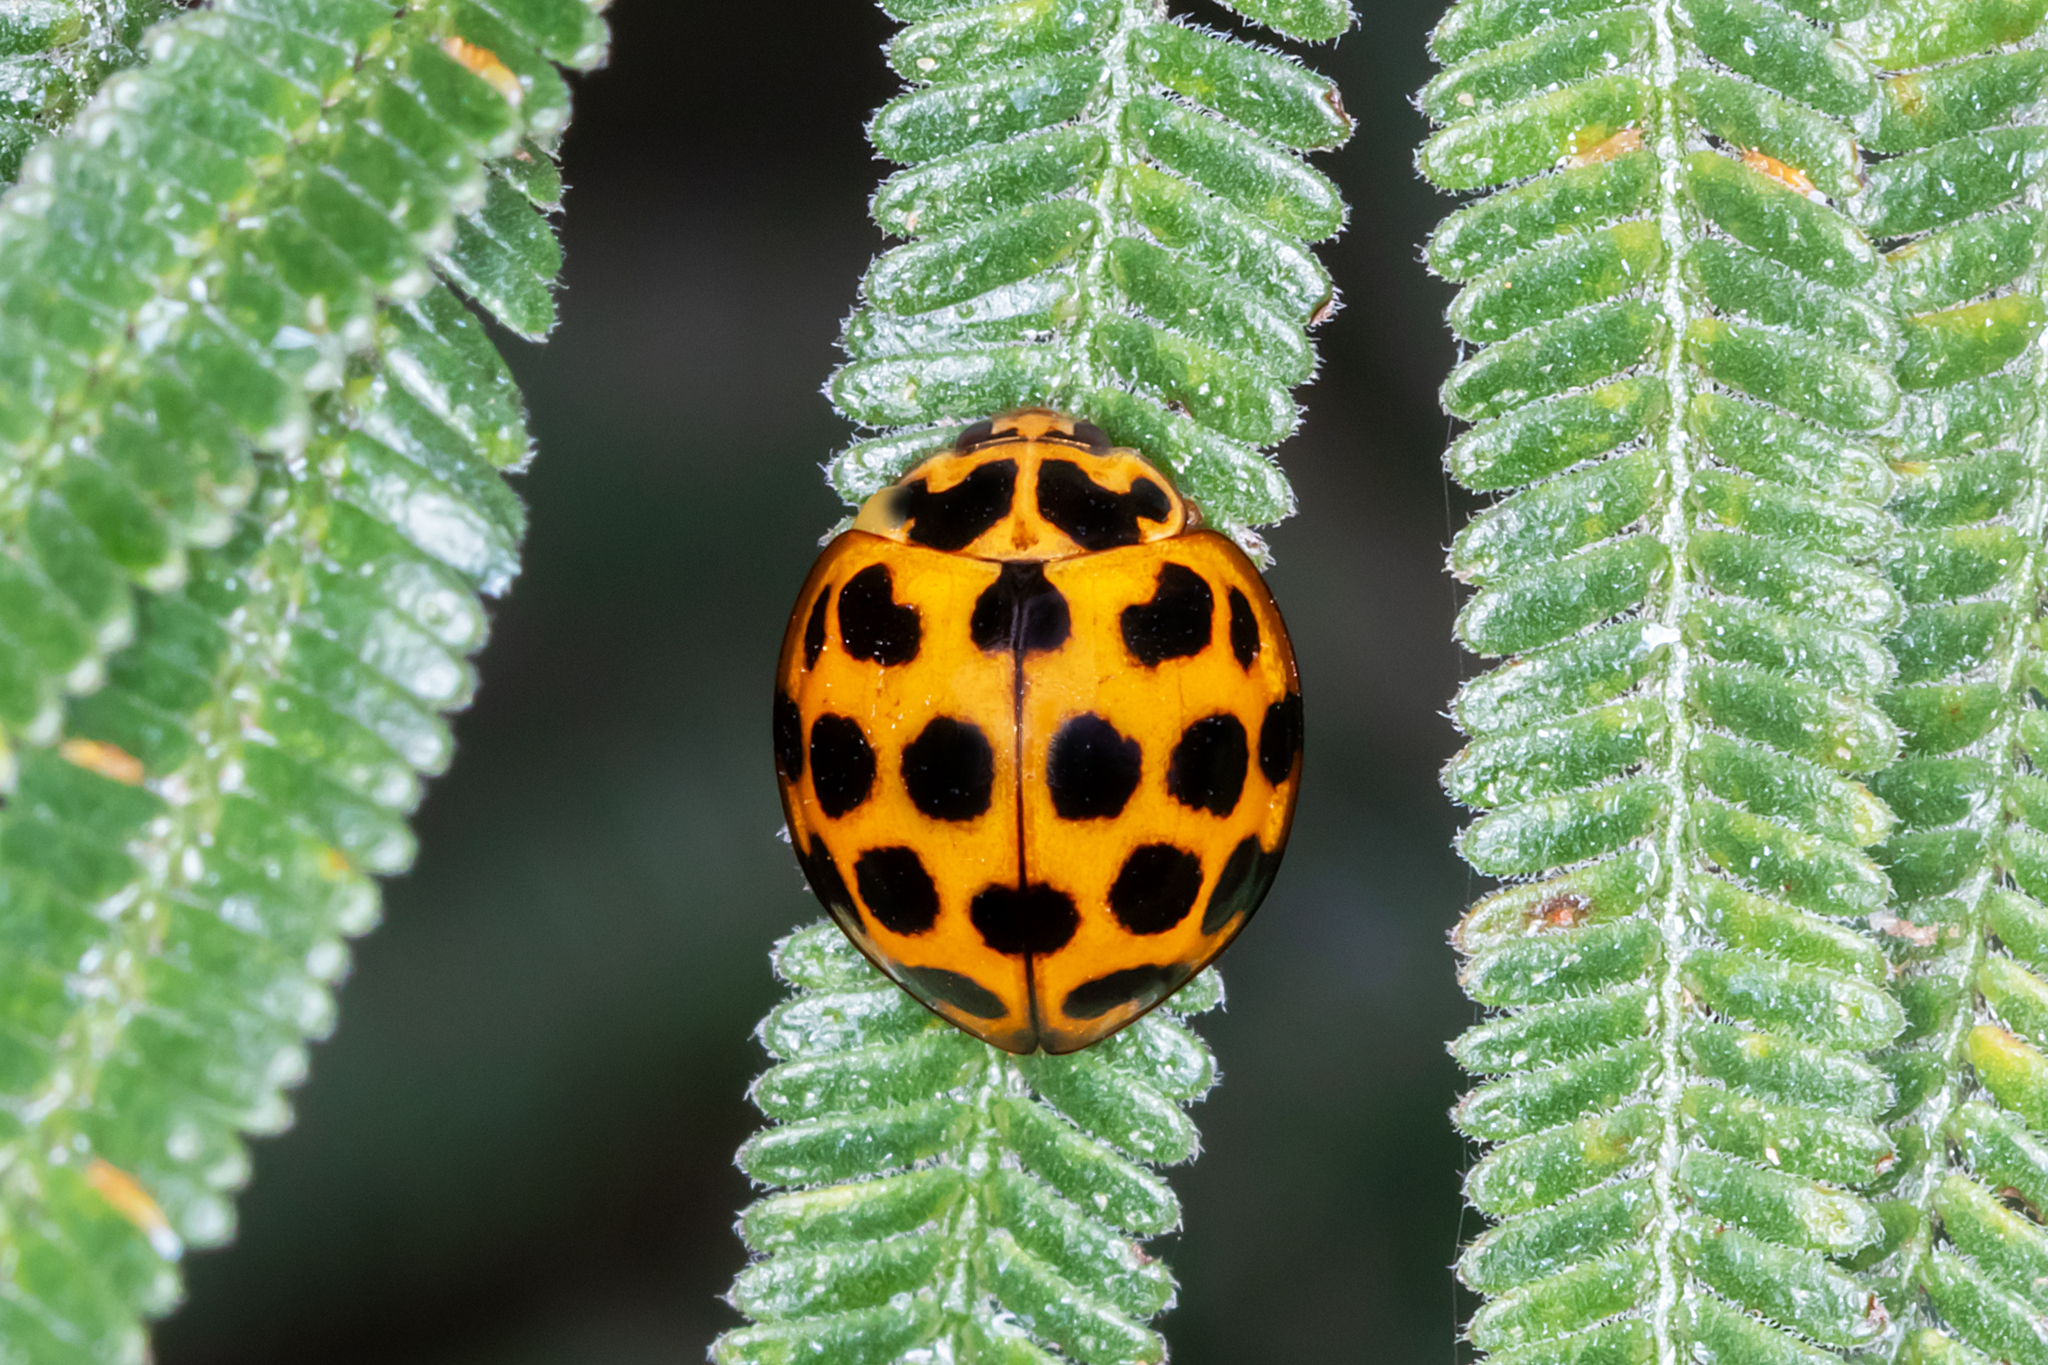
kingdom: Animalia
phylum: Arthropoda
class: Insecta
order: Coleoptera
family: Coccinellidae
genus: Harmonia
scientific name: Harmonia conformis
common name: Common spotted ladybird beetle
